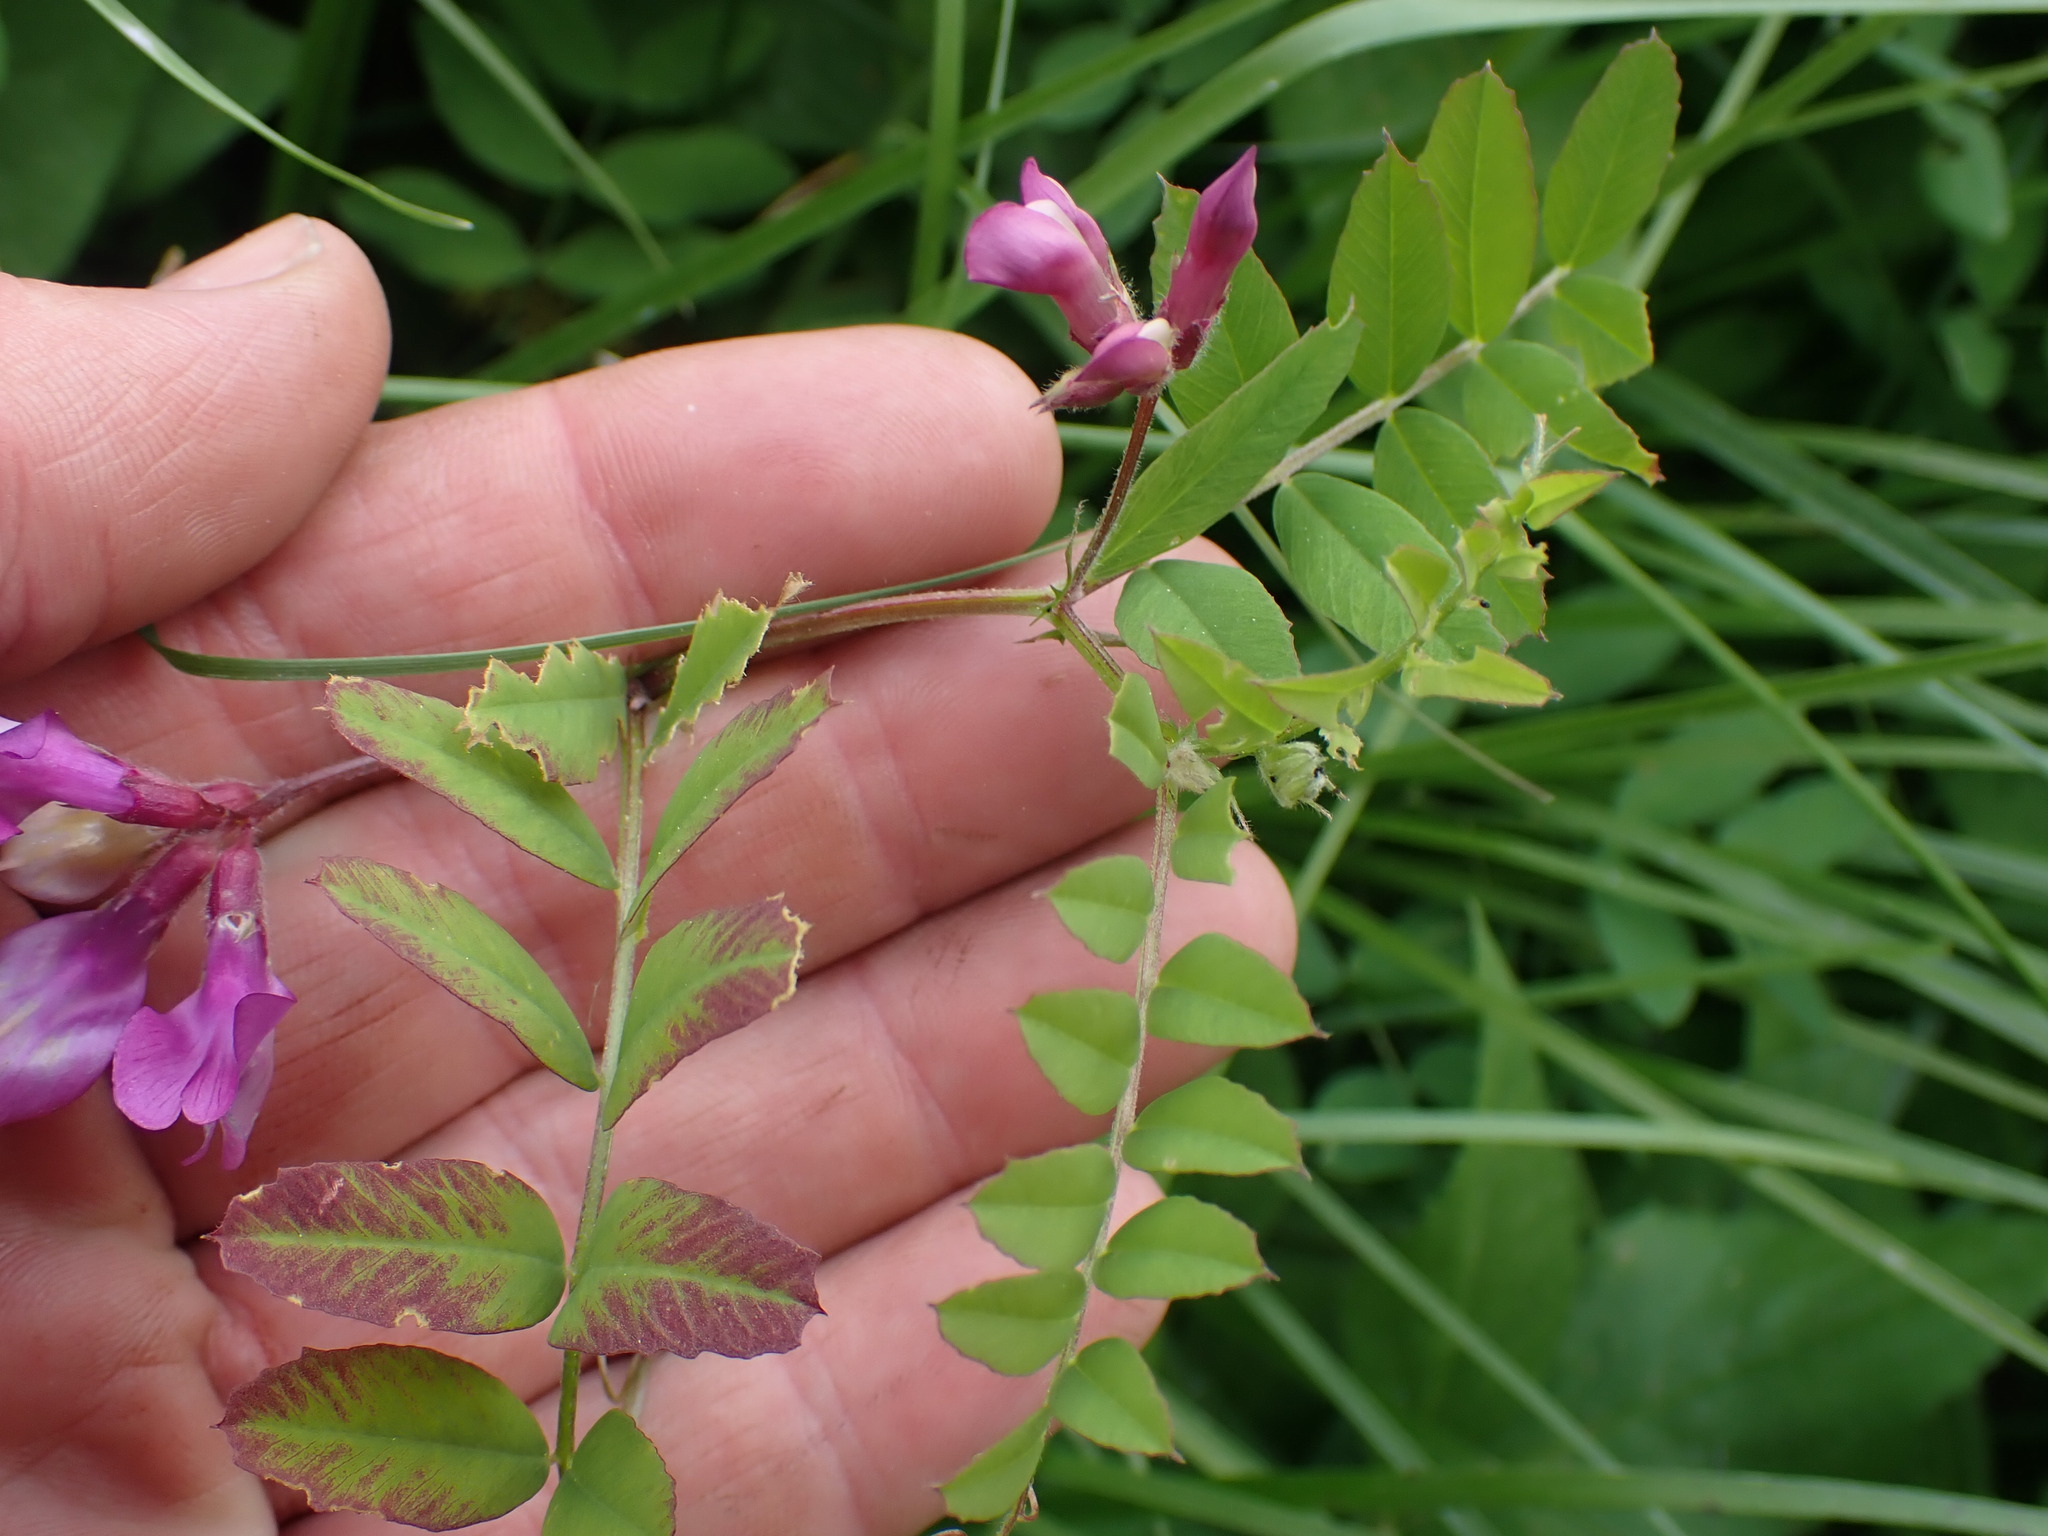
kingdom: Plantae
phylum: Tracheophyta
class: Magnoliopsida
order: Fabales
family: Fabaceae
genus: Vicia
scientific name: Vicia americana
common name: American vetch
